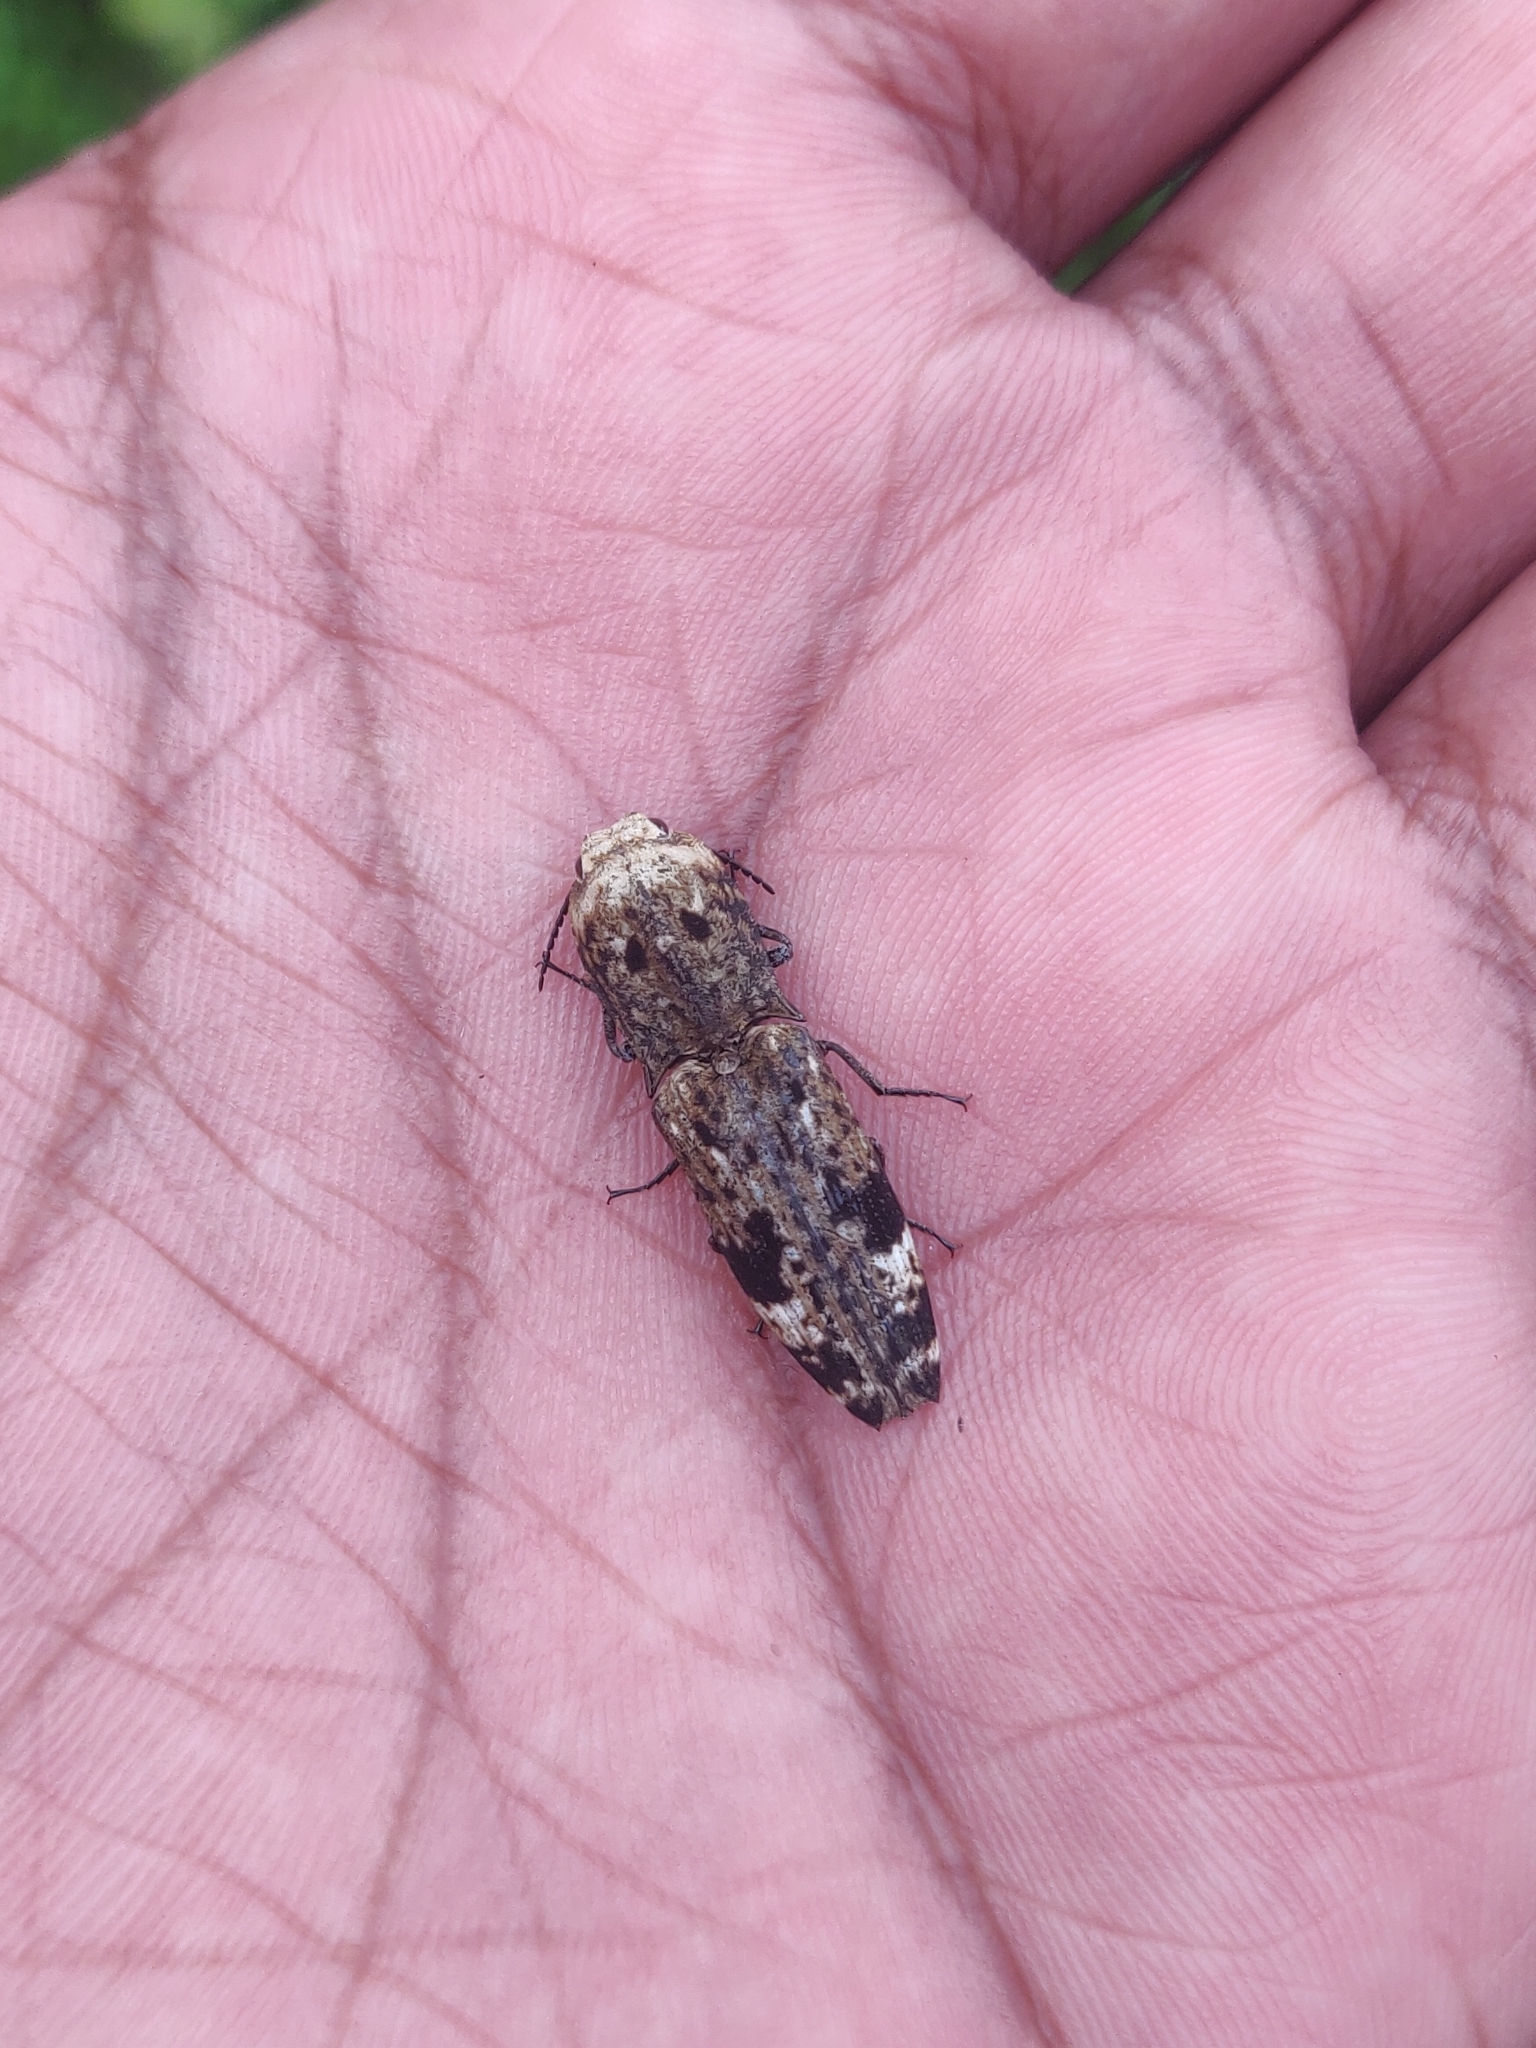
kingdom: Animalia
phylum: Arthropoda
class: Insecta
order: Coleoptera
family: Elateridae
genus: Cryptalaus
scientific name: Cryptalaus alveolatus
